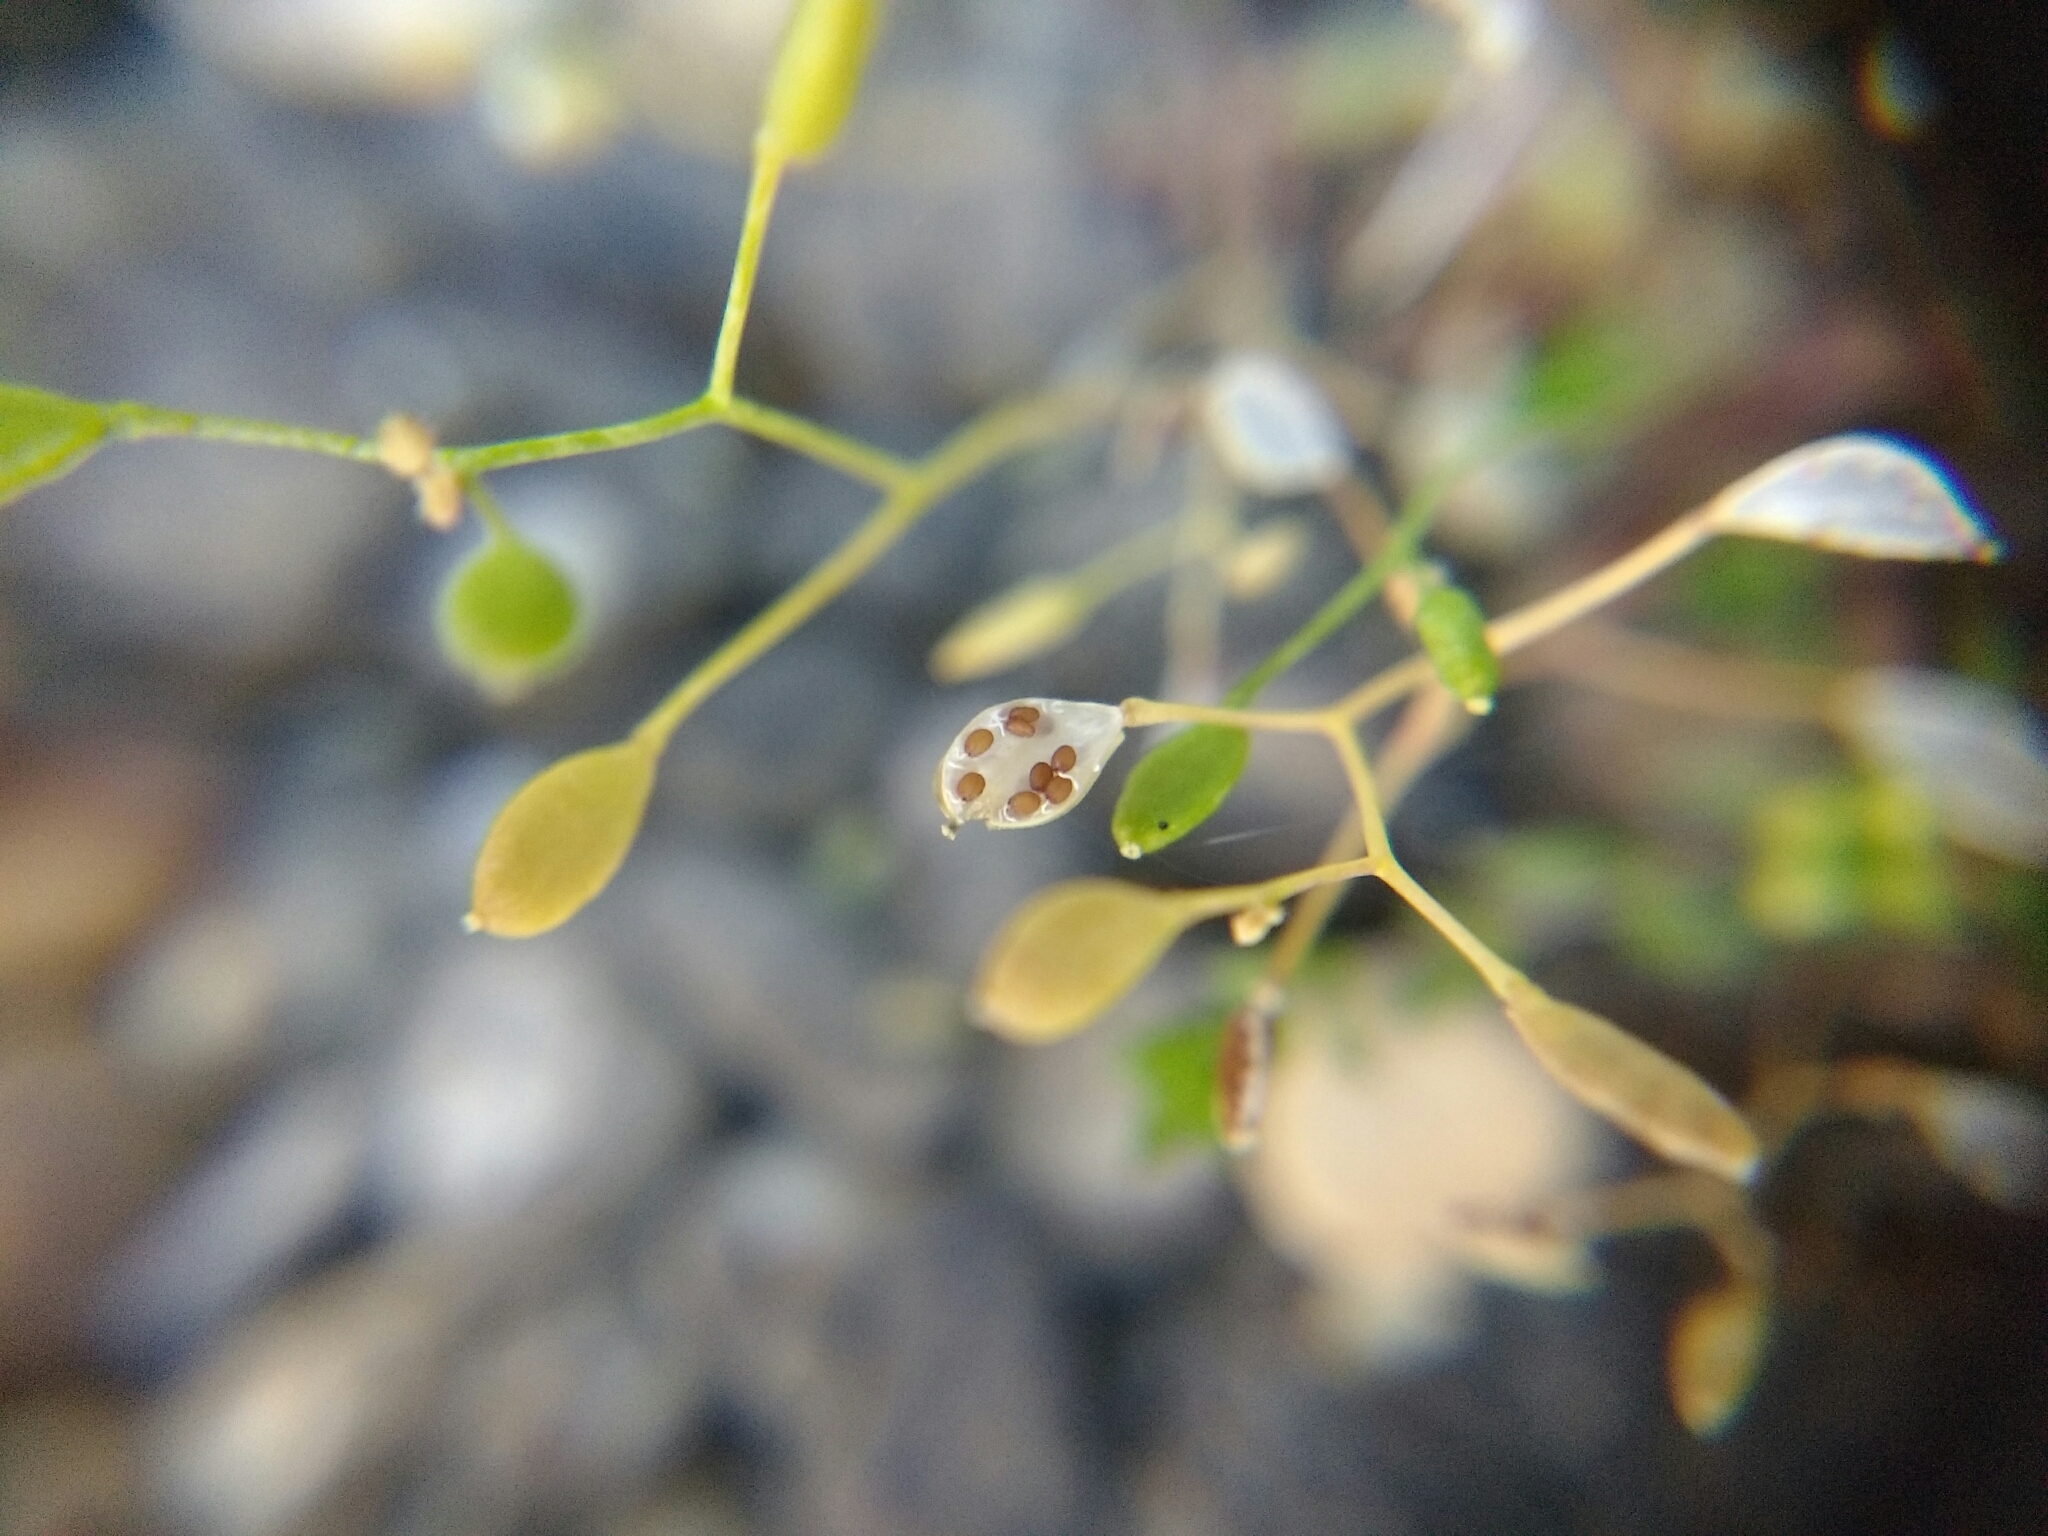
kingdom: Plantae
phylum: Tracheophyta
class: Magnoliopsida
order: Brassicales
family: Brassicaceae
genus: Draba
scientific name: Draba verna
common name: Spring draba
